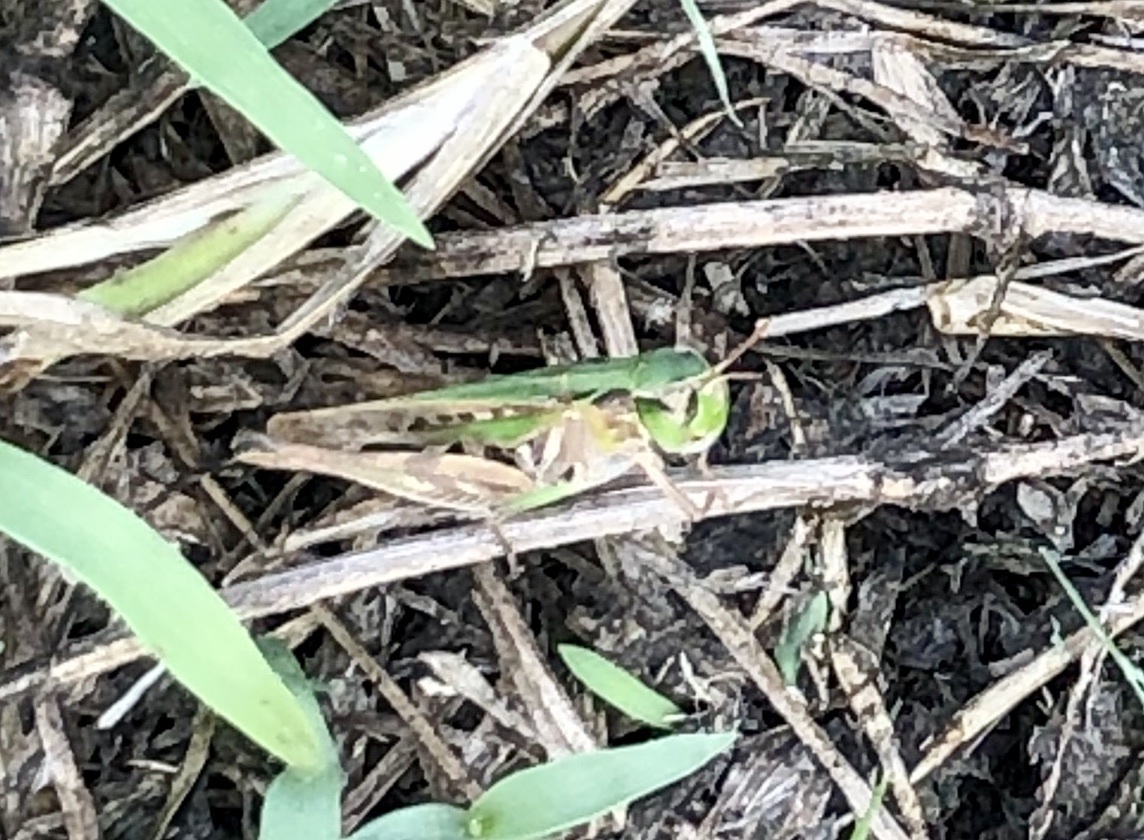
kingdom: Animalia
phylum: Arthropoda
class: Insecta
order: Orthoptera
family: Acrididae
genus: Orphulella
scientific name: Orphulella speciosa
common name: Pasture grasshopper
